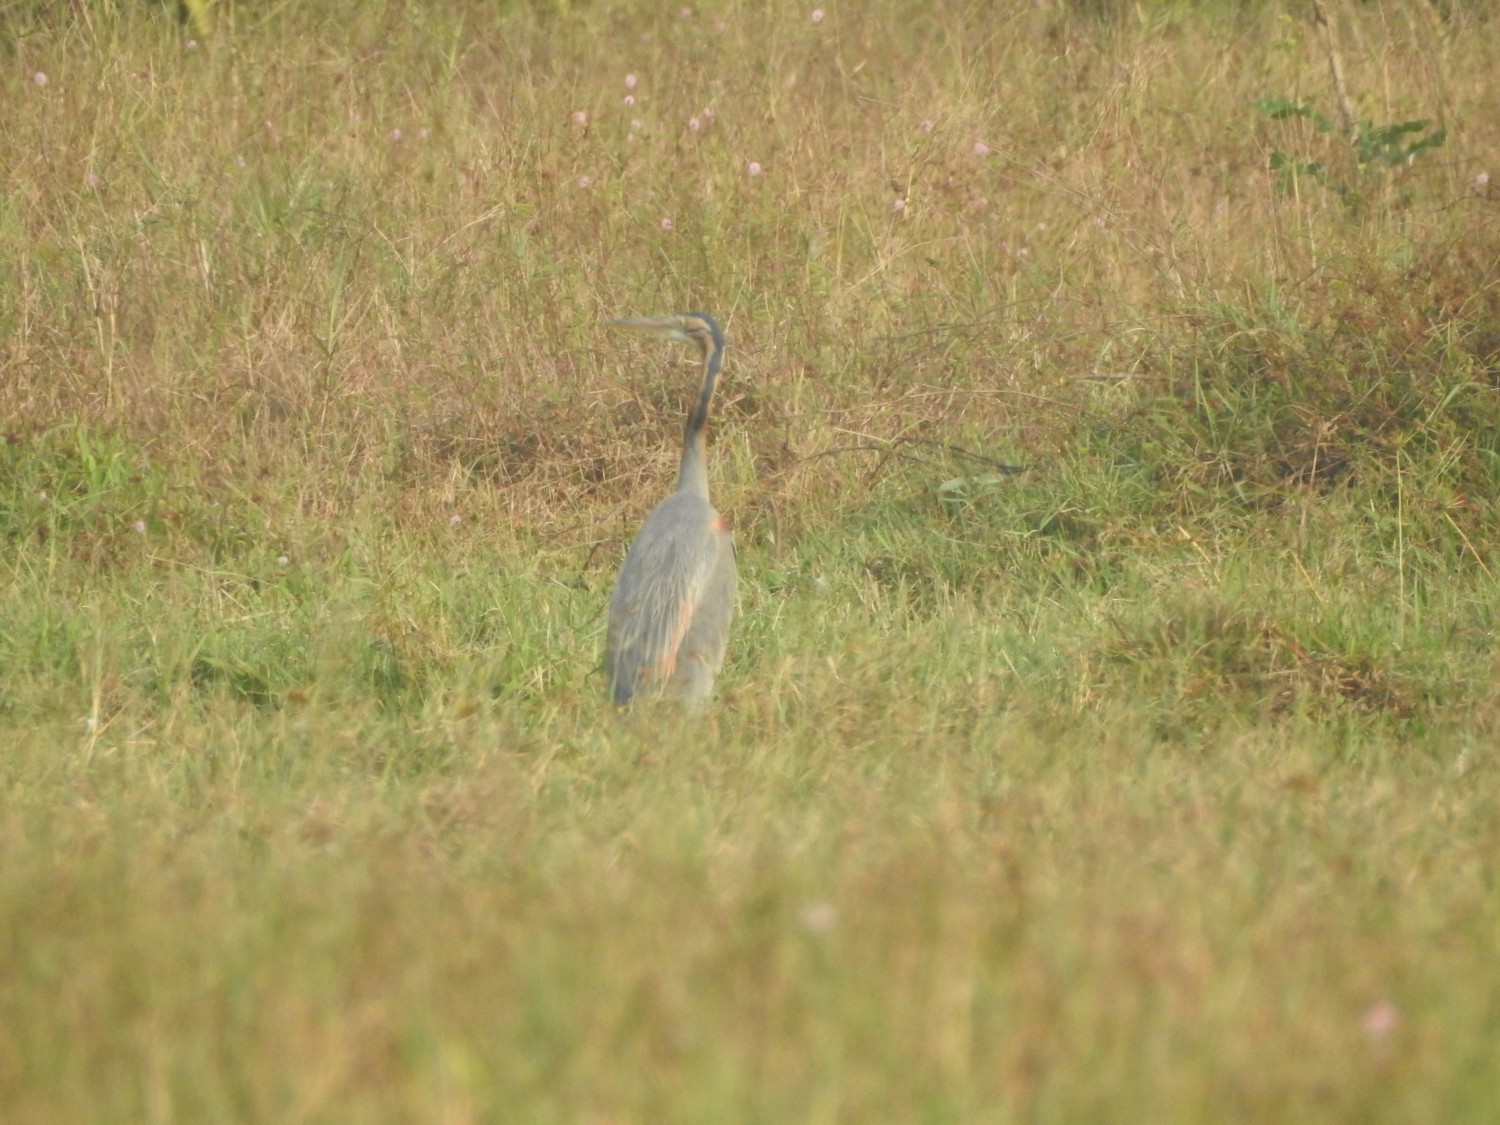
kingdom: Animalia
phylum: Chordata
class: Aves
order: Pelecaniformes
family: Ardeidae
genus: Ardea
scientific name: Ardea purpurea
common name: Purple heron
